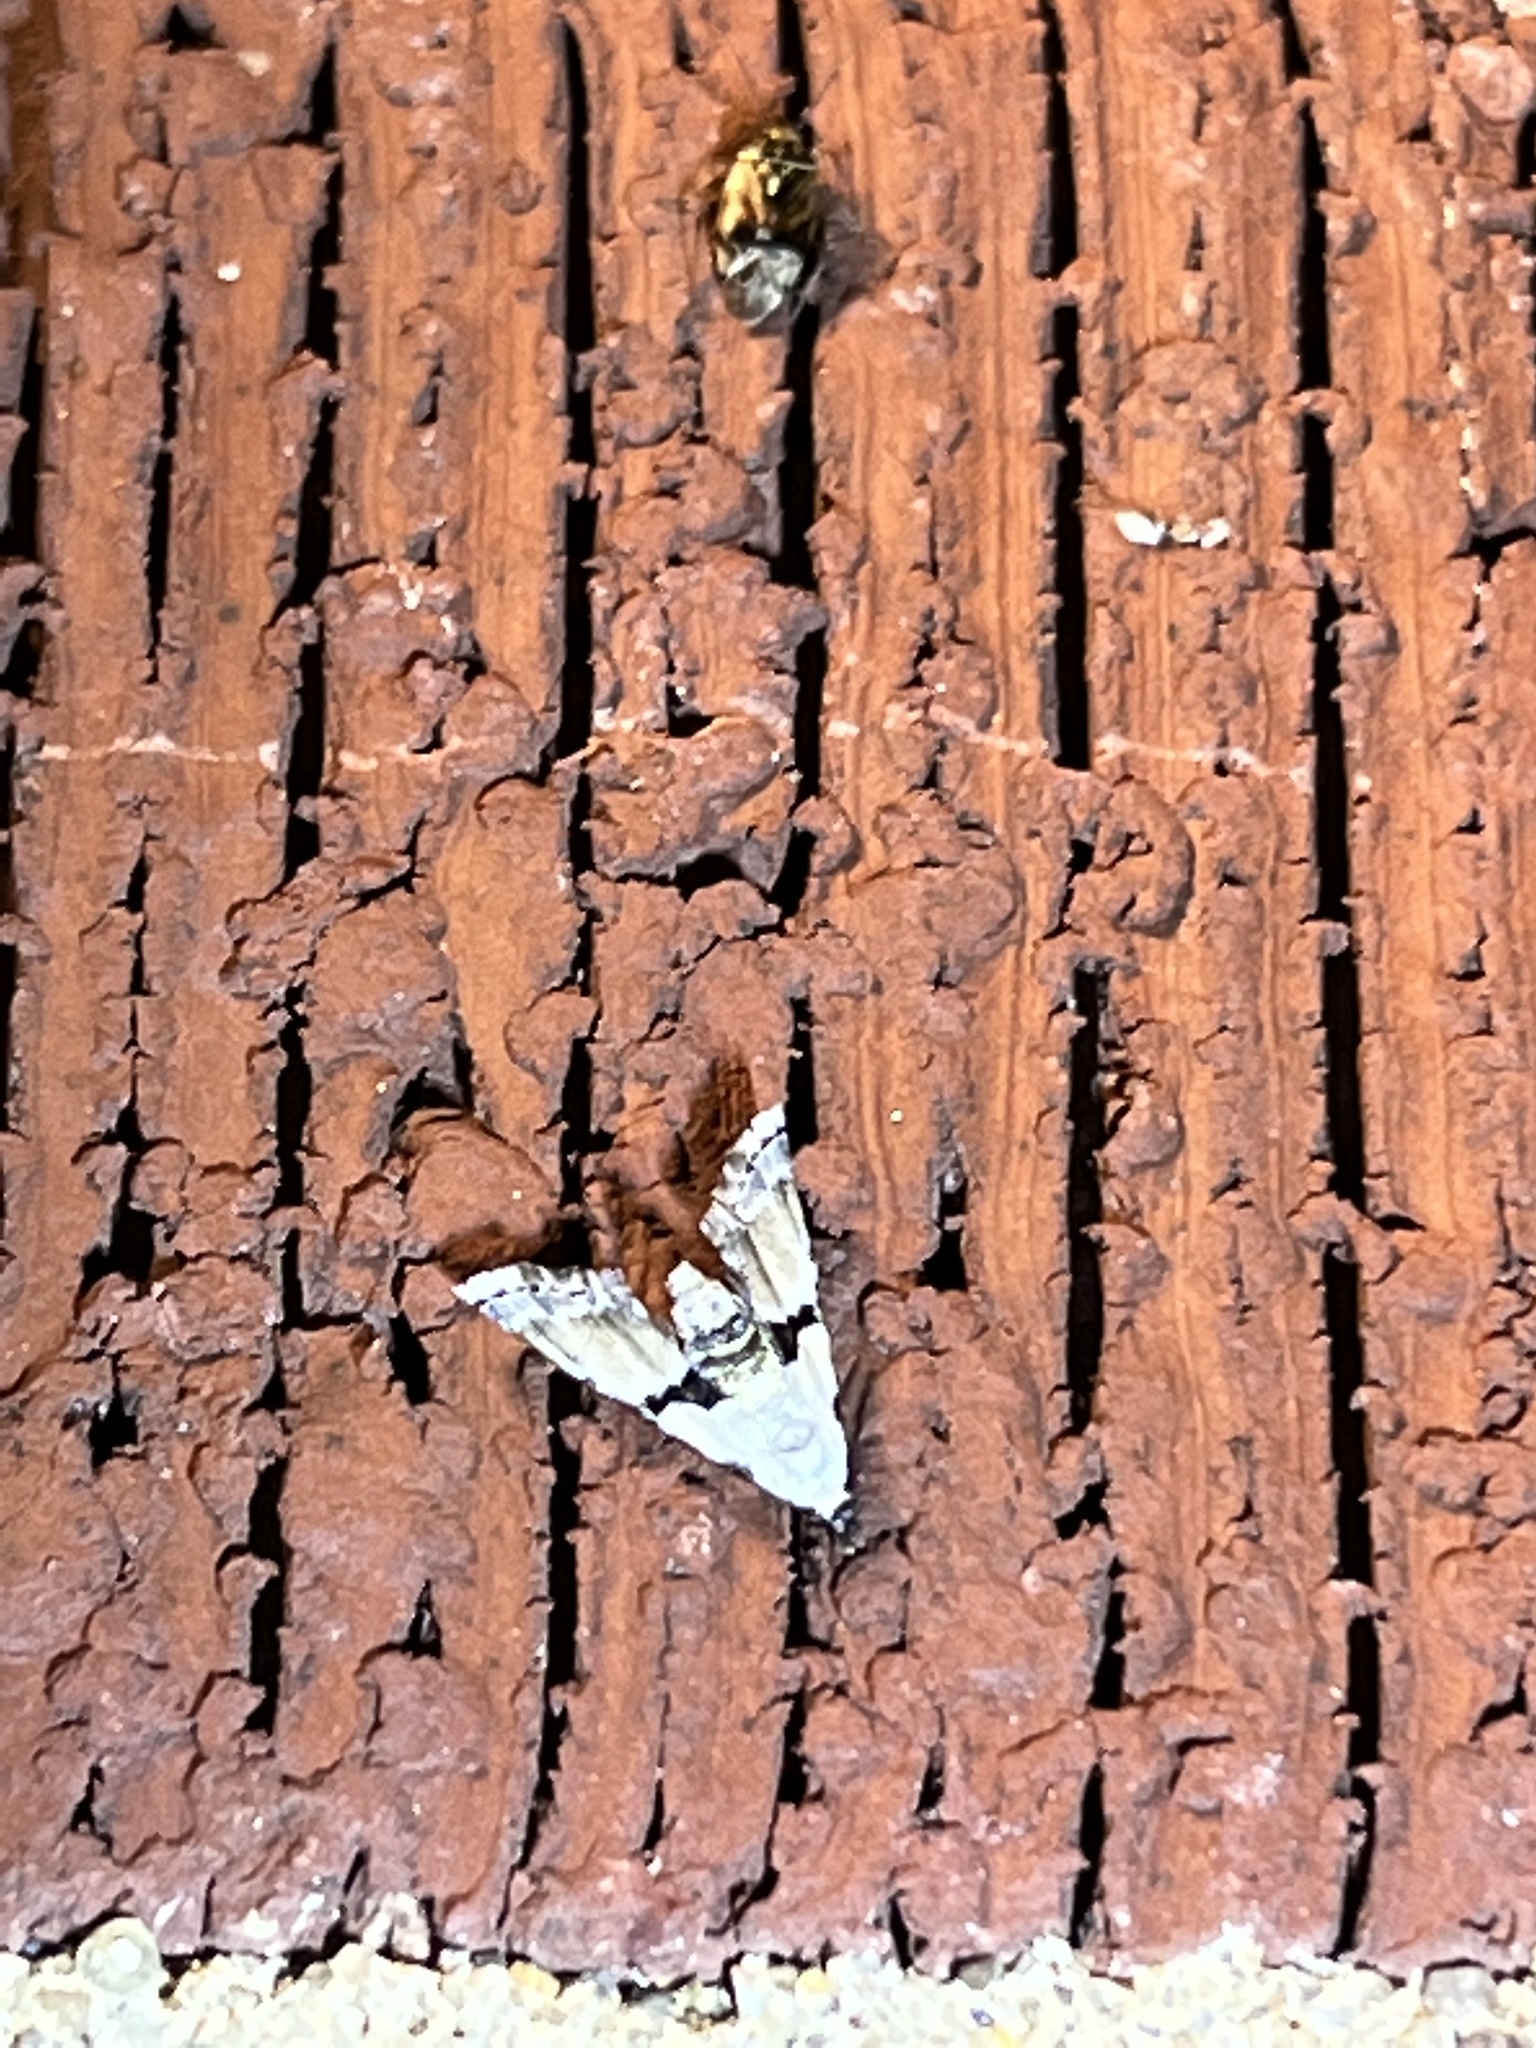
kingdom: Animalia
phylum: Arthropoda
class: Insecta
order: Lepidoptera
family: Noctuidae
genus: Nigetia
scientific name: Nigetia formosalis
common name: Thin-winged owlet
